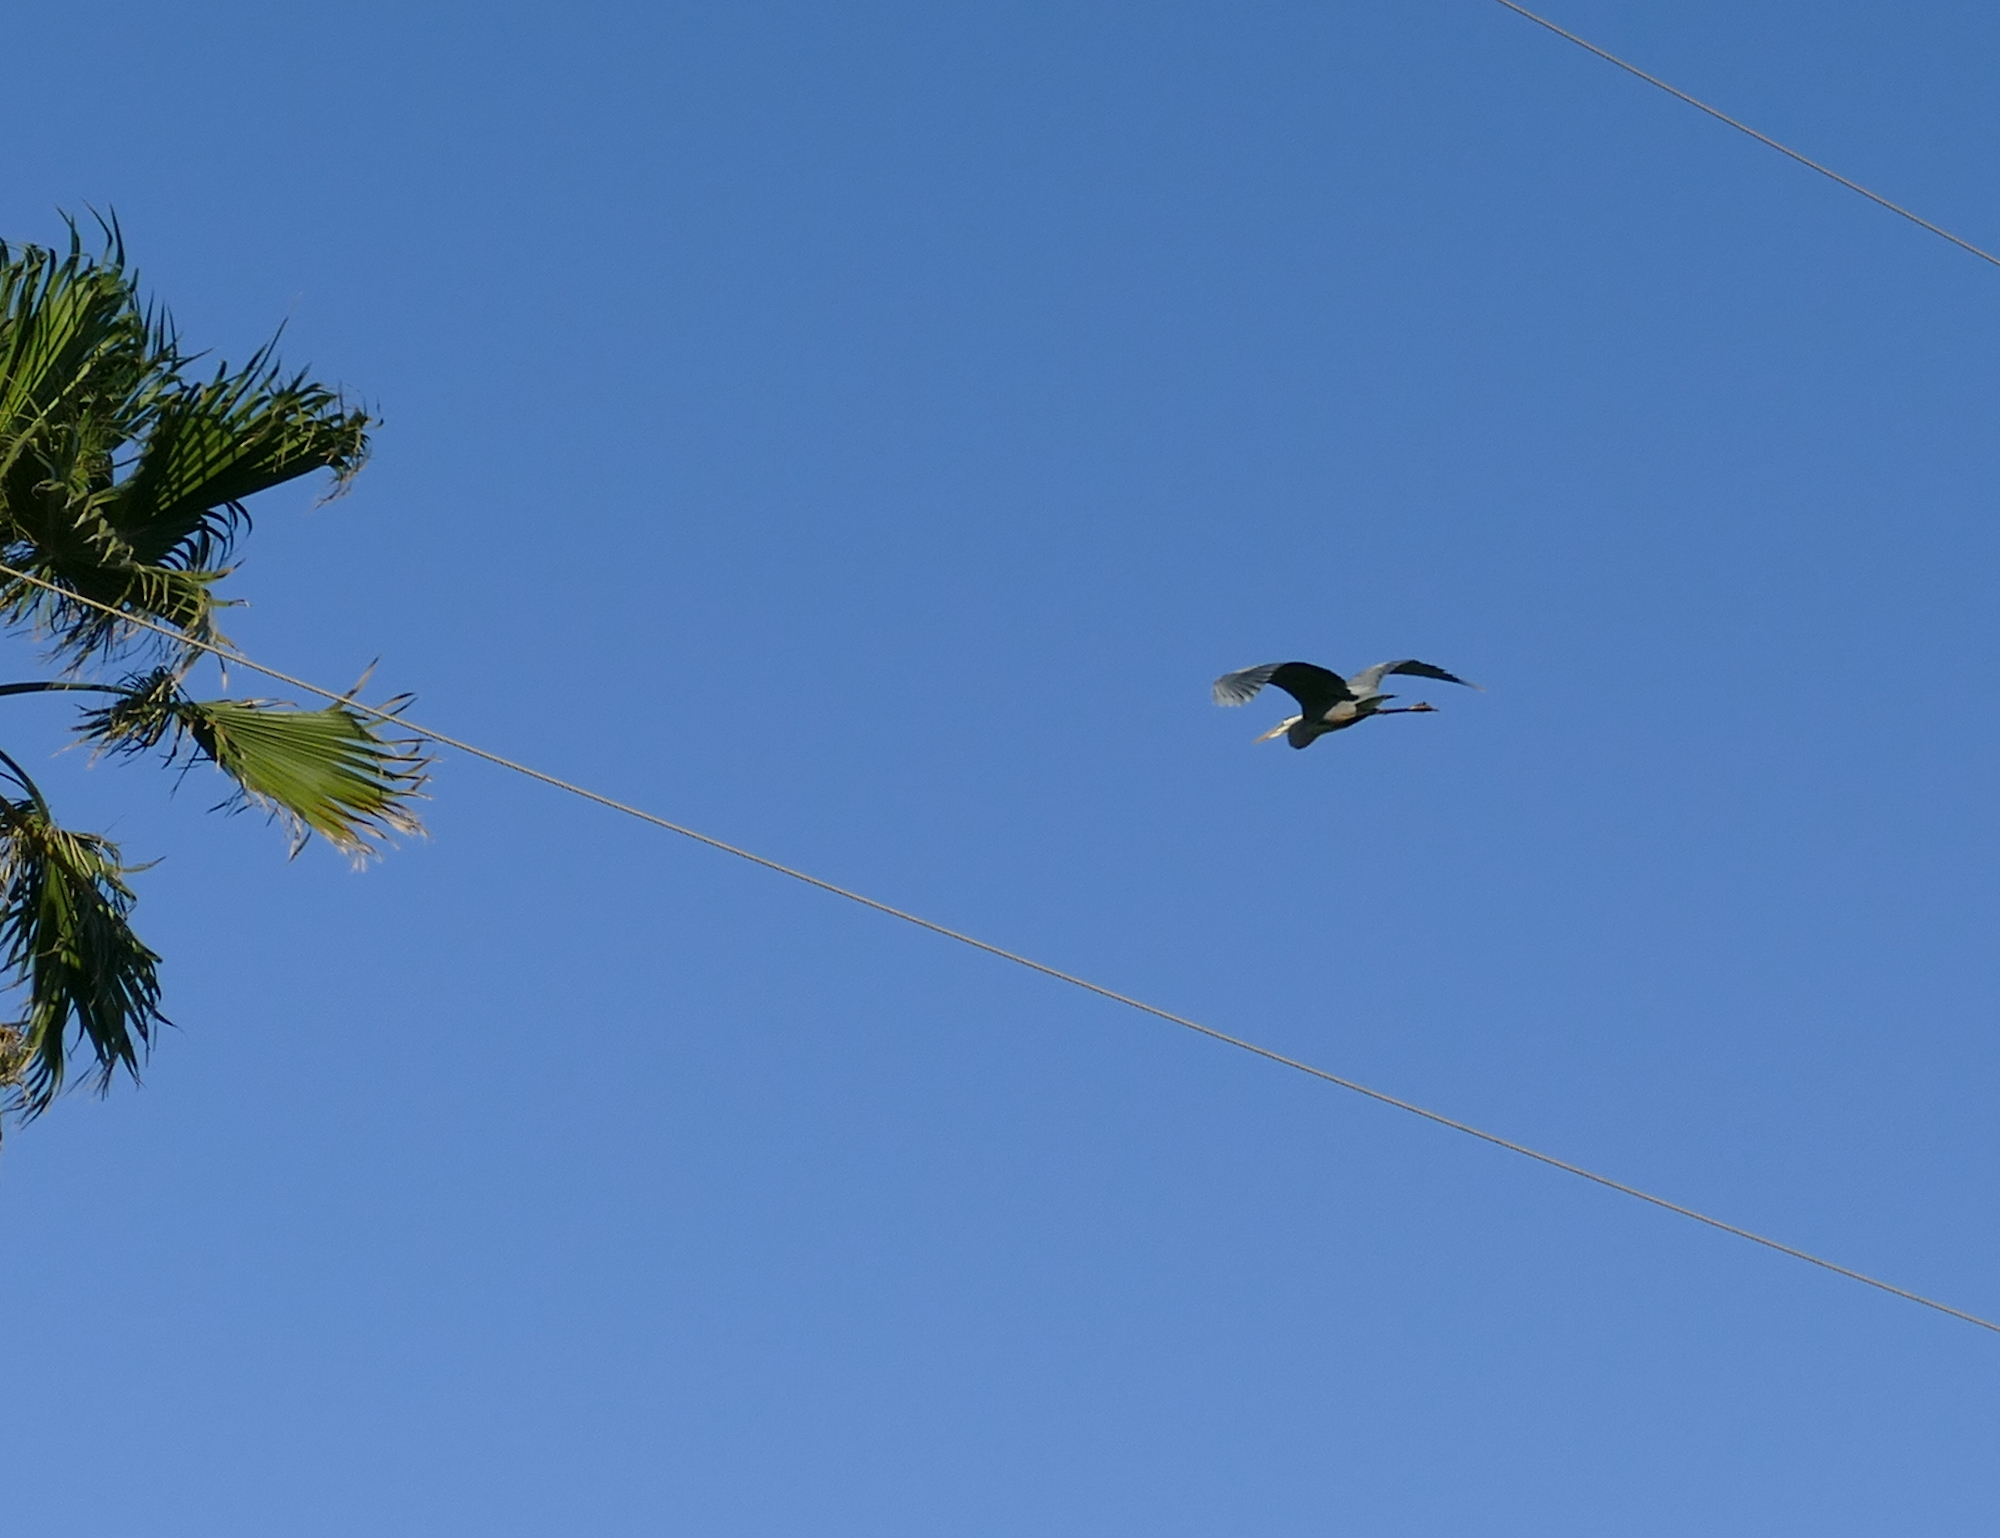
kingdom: Animalia
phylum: Chordata
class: Aves
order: Pelecaniformes
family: Ardeidae
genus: Ardea
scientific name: Ardea herodias
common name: Great blue heron
